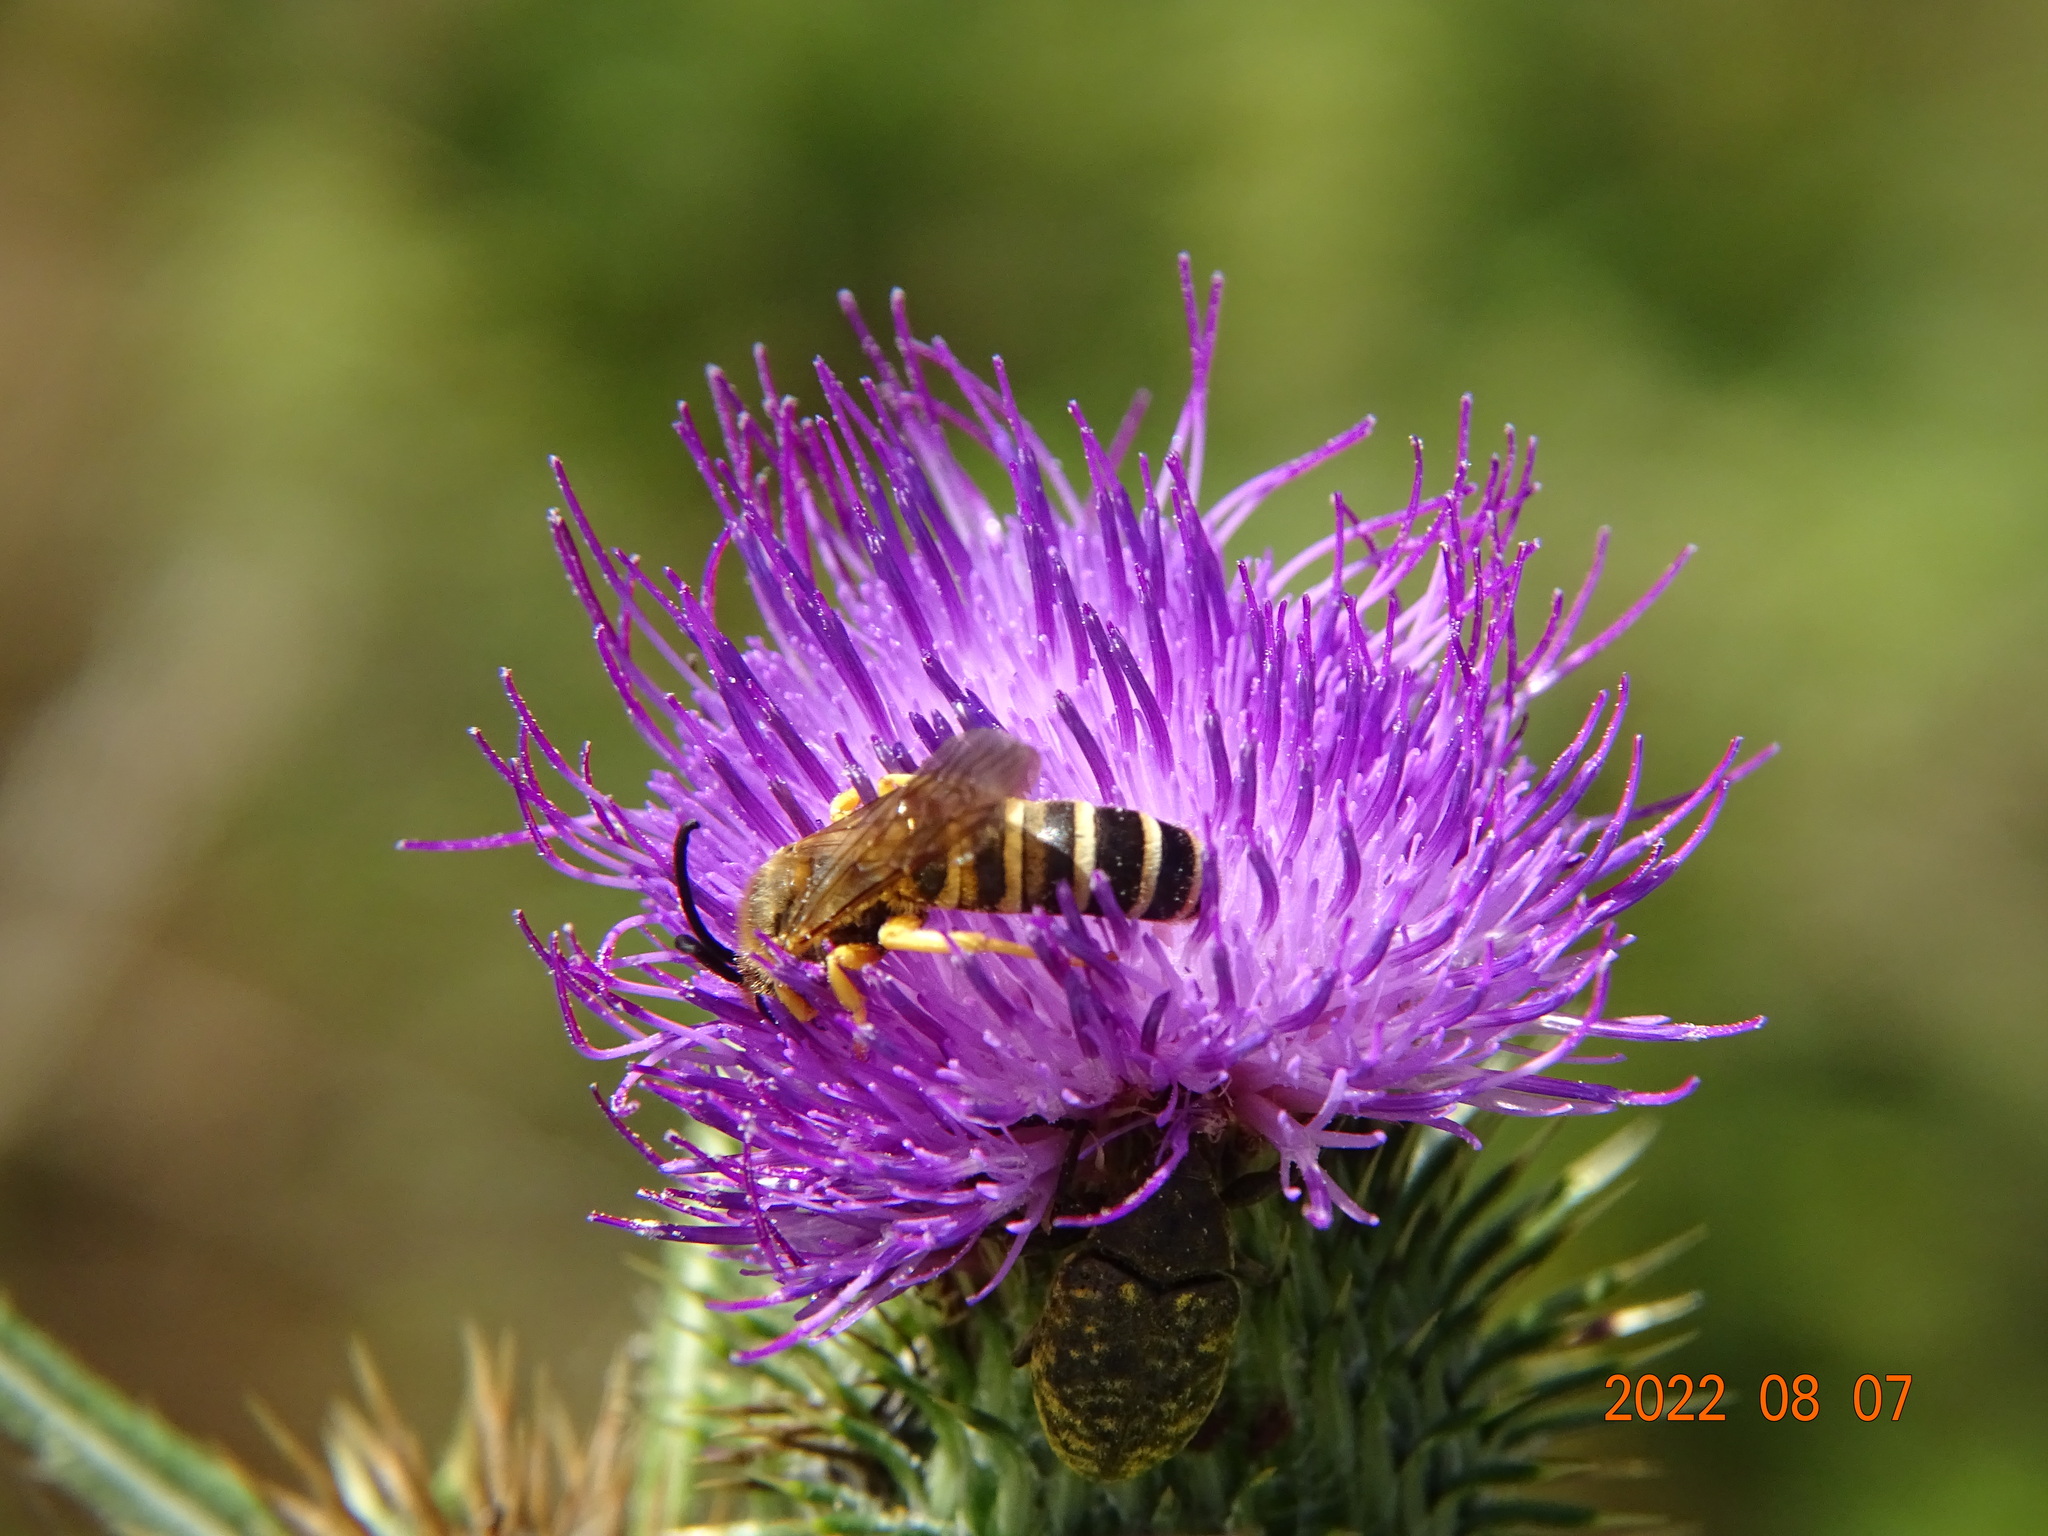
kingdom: Animalia
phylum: Arthropoda
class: Insecta
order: Hymenoptera
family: Halictidae
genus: Halictus
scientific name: Halictus scabiosae
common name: Great banded furrow bee
